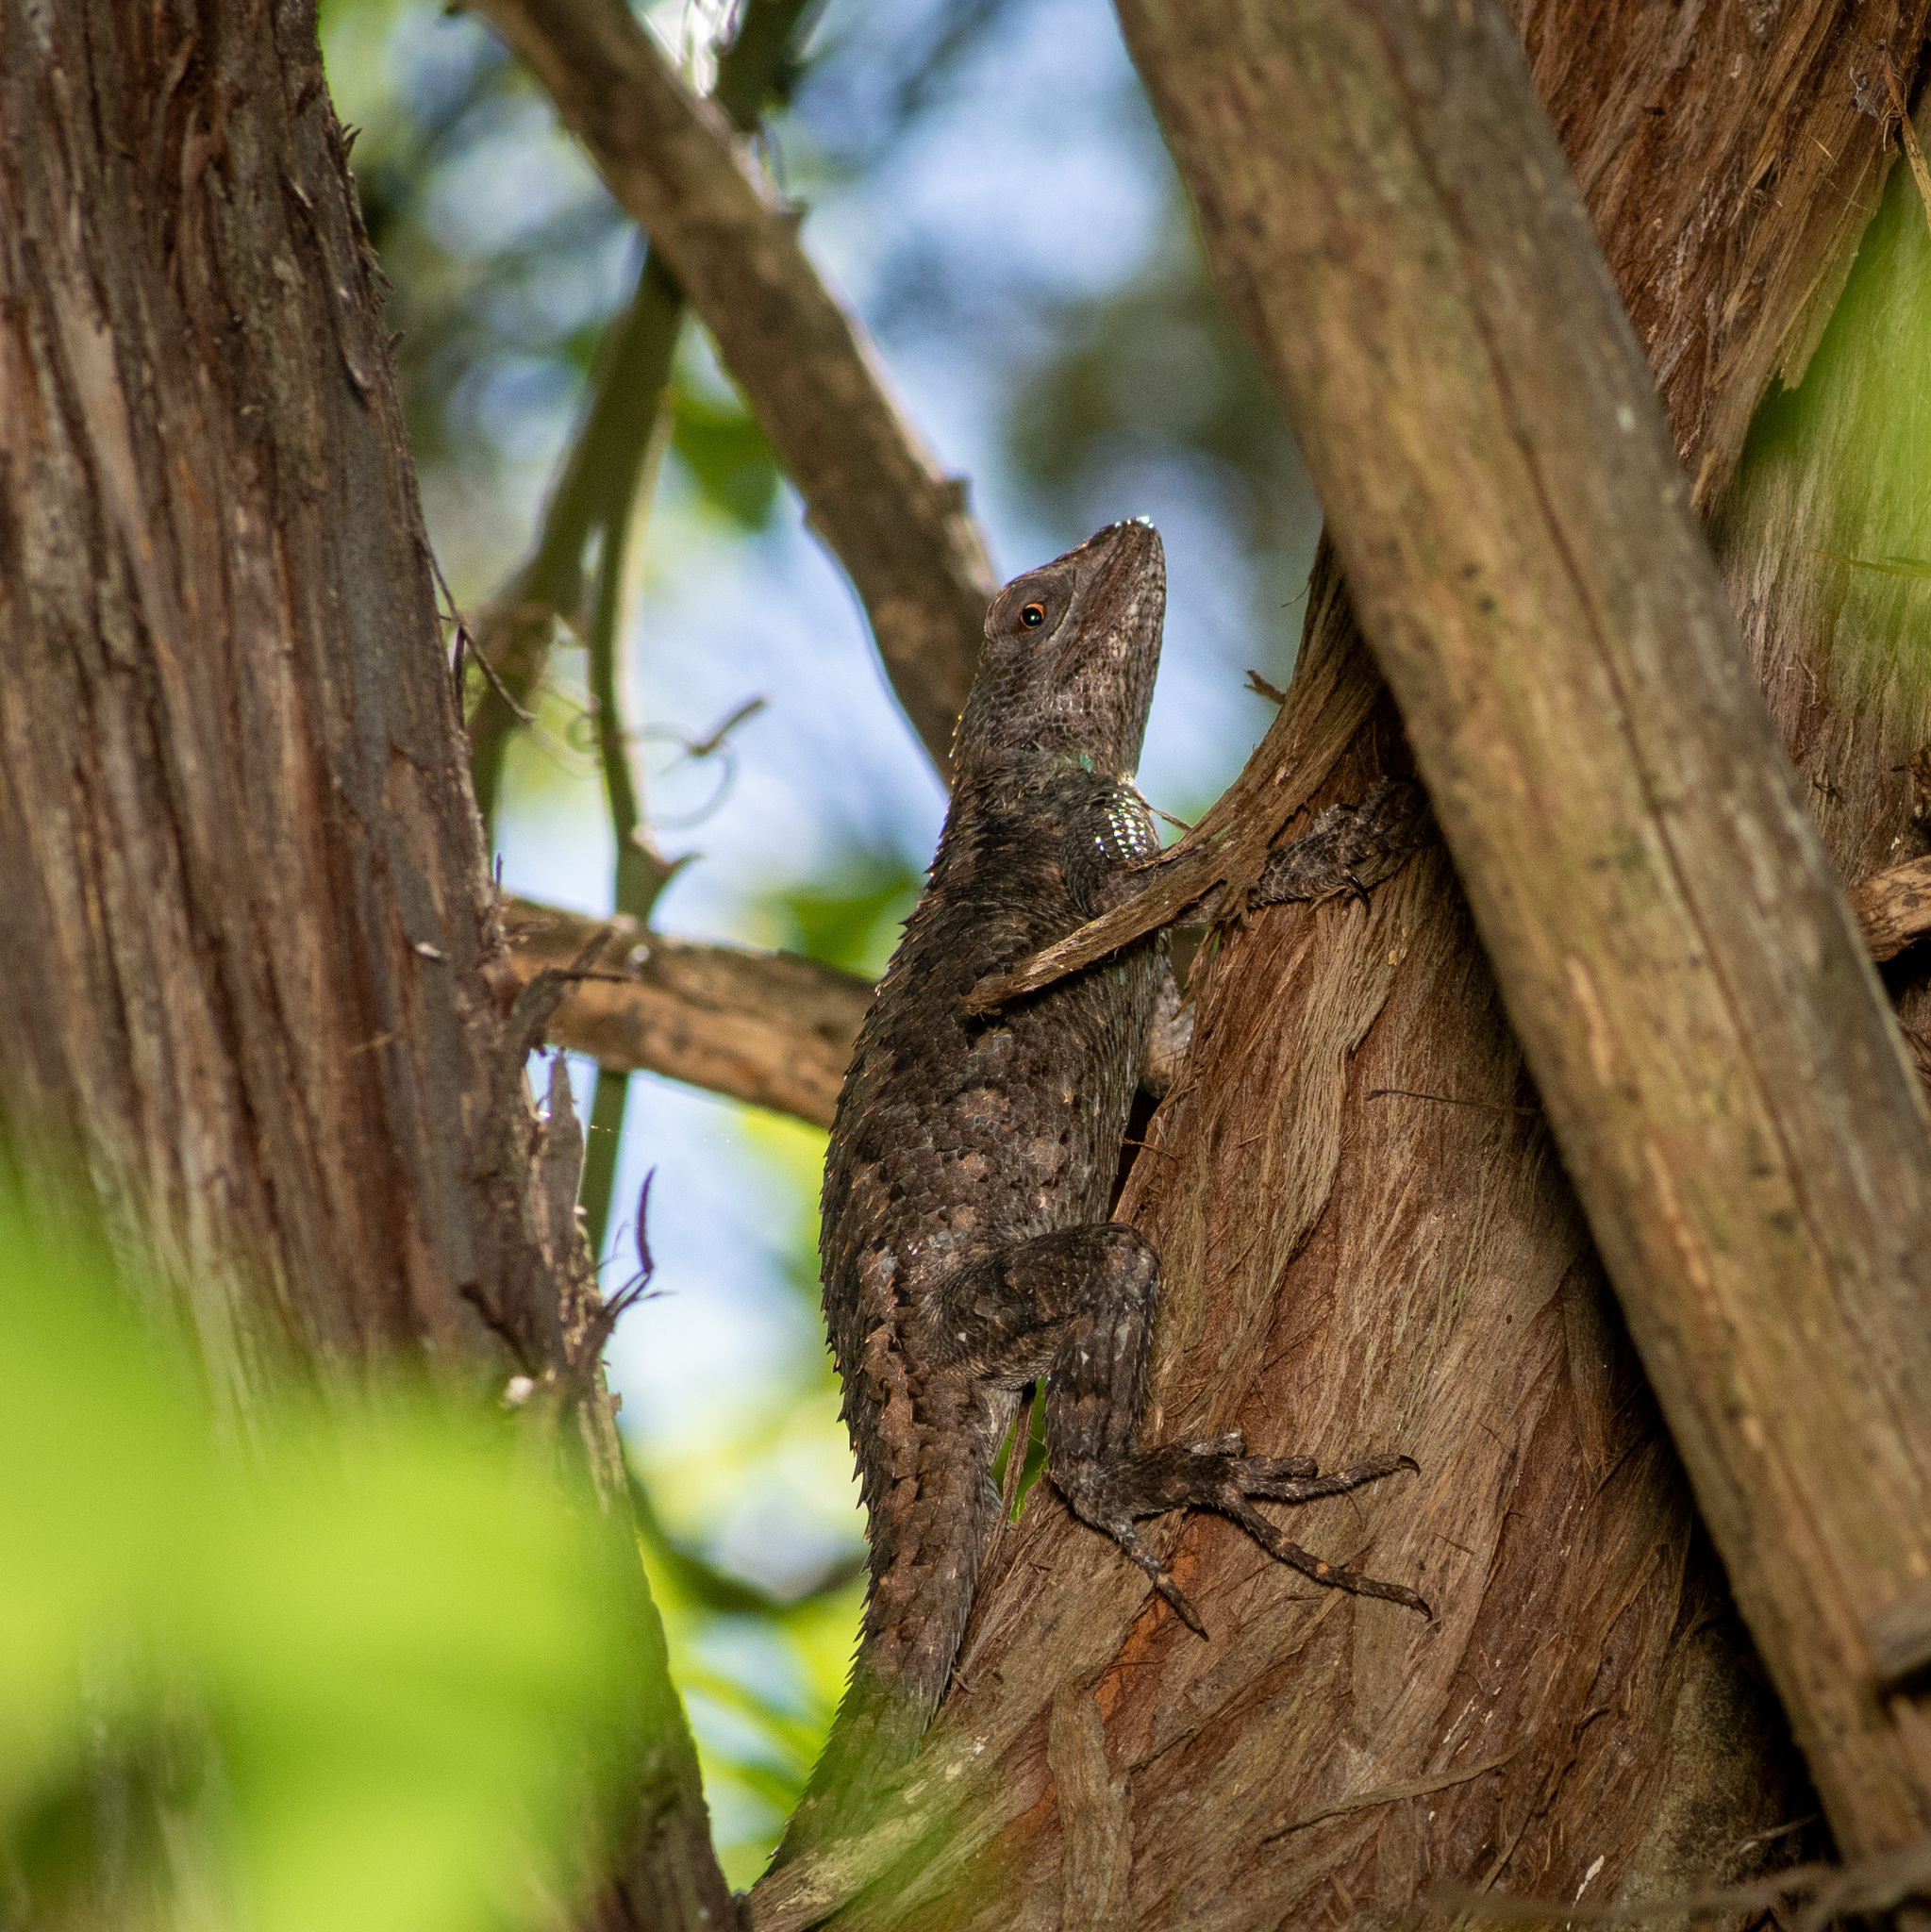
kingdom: Animalia
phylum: Chordata
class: Squamata
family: Phrynosomatidae
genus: Sceloporus
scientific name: Sceloporus olivaceus
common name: Texas spiny lizard
